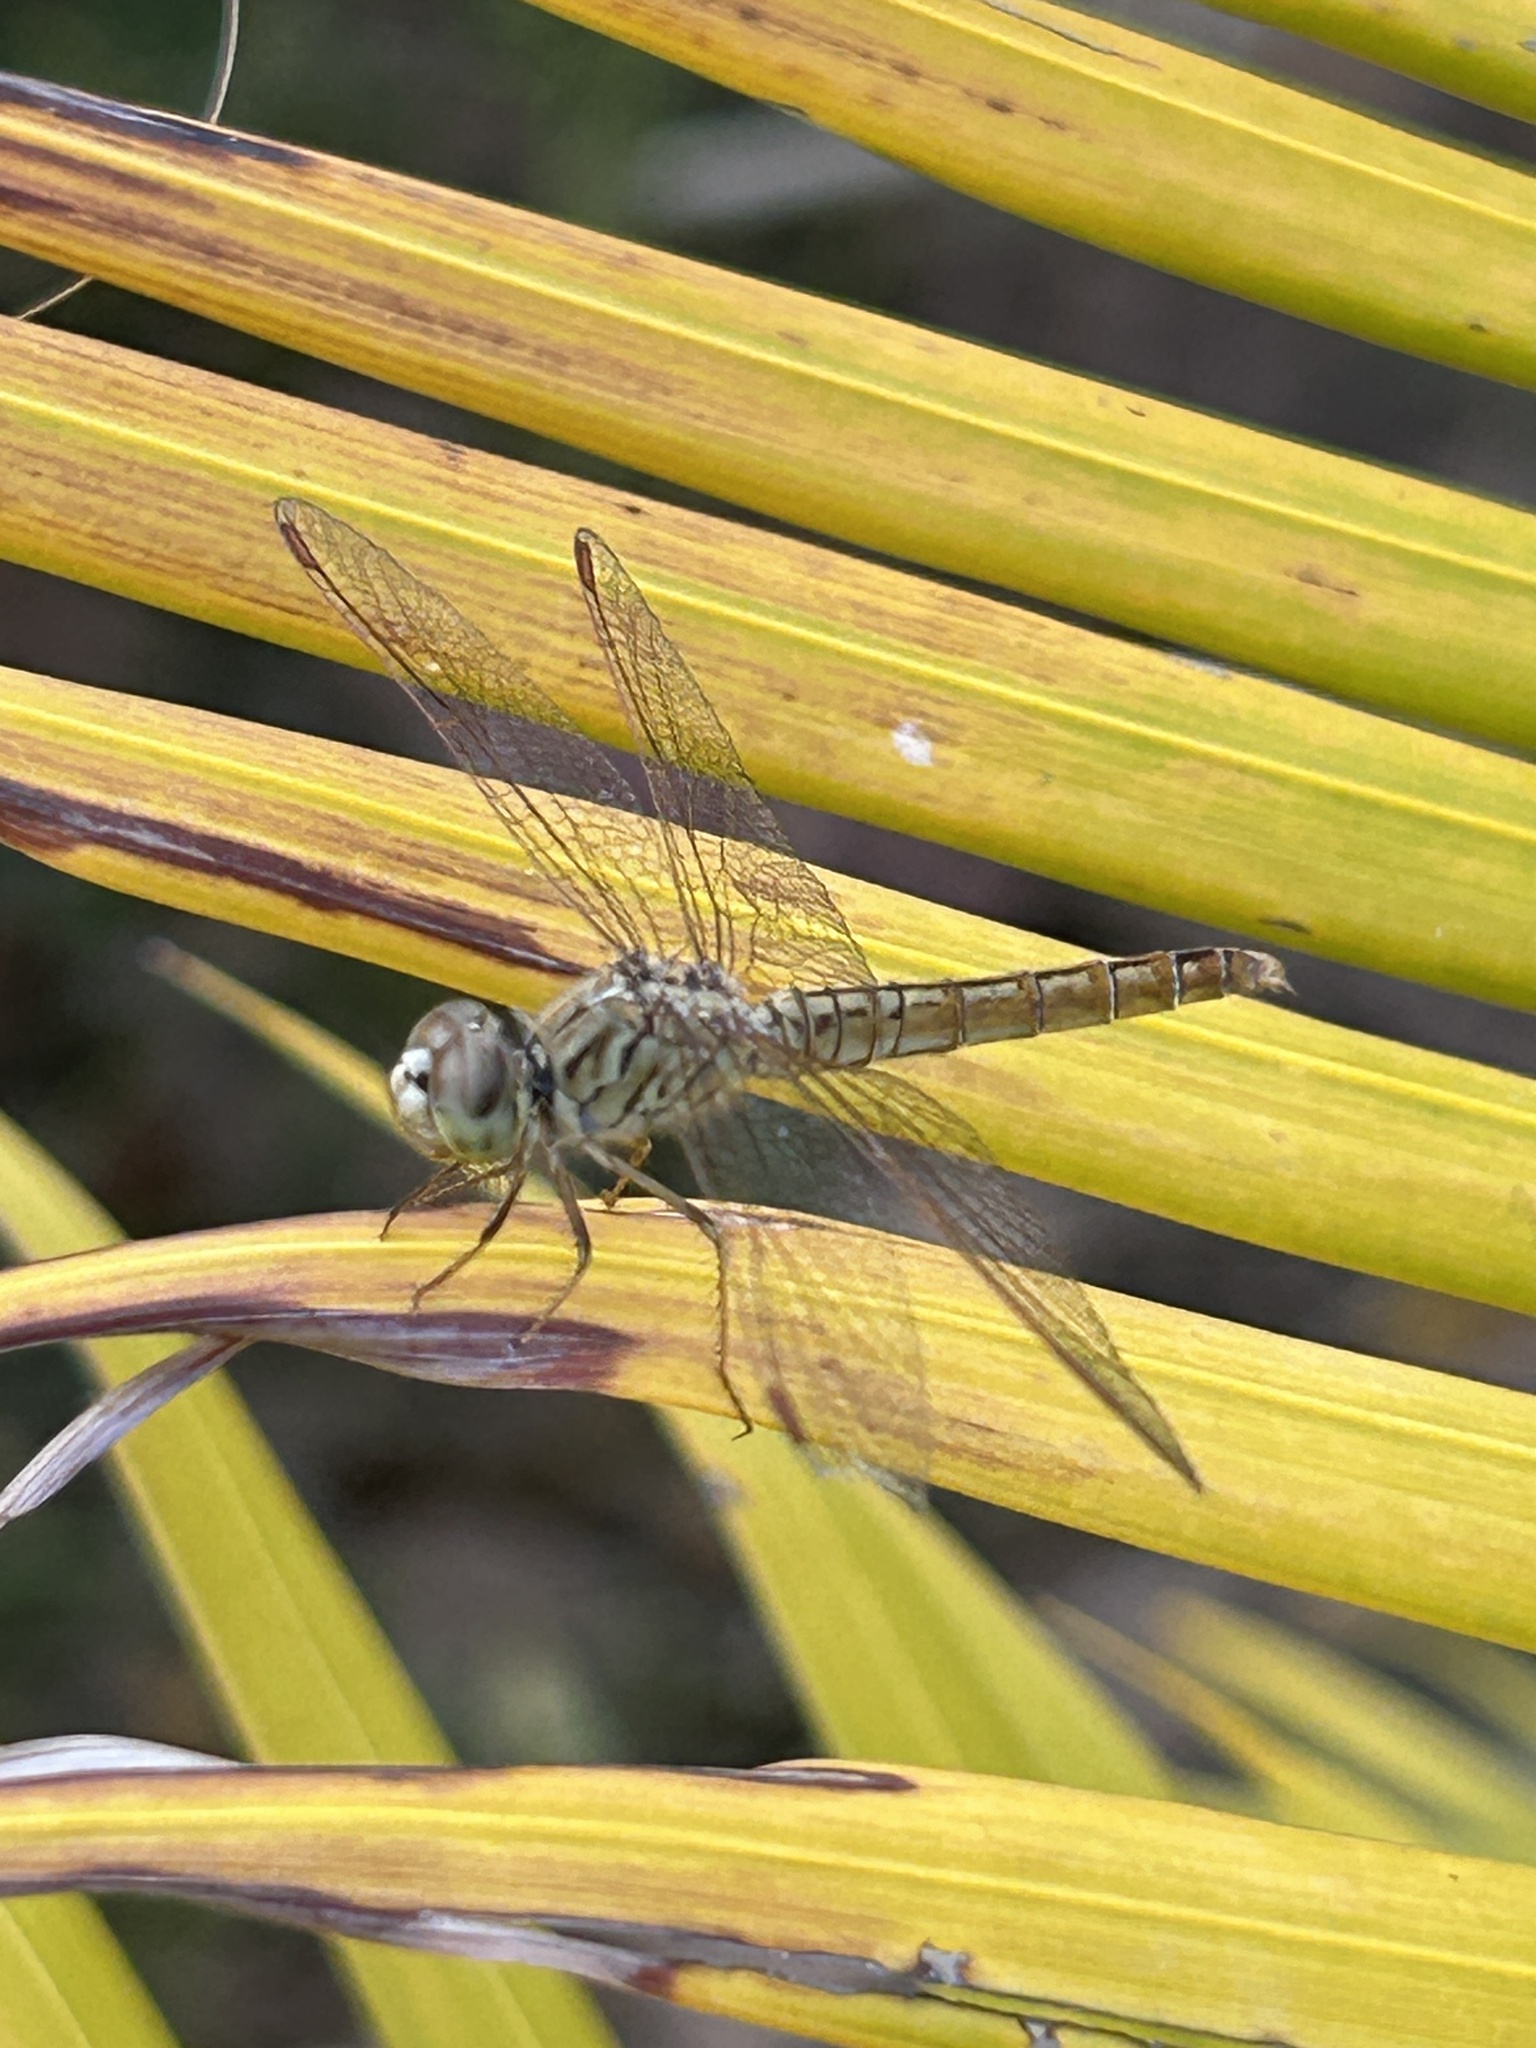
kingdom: Animalia
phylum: Arthropoda
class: Insecta
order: Odonata
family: Libellulidae
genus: Brachythemis
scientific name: Brachythemis contaminata
